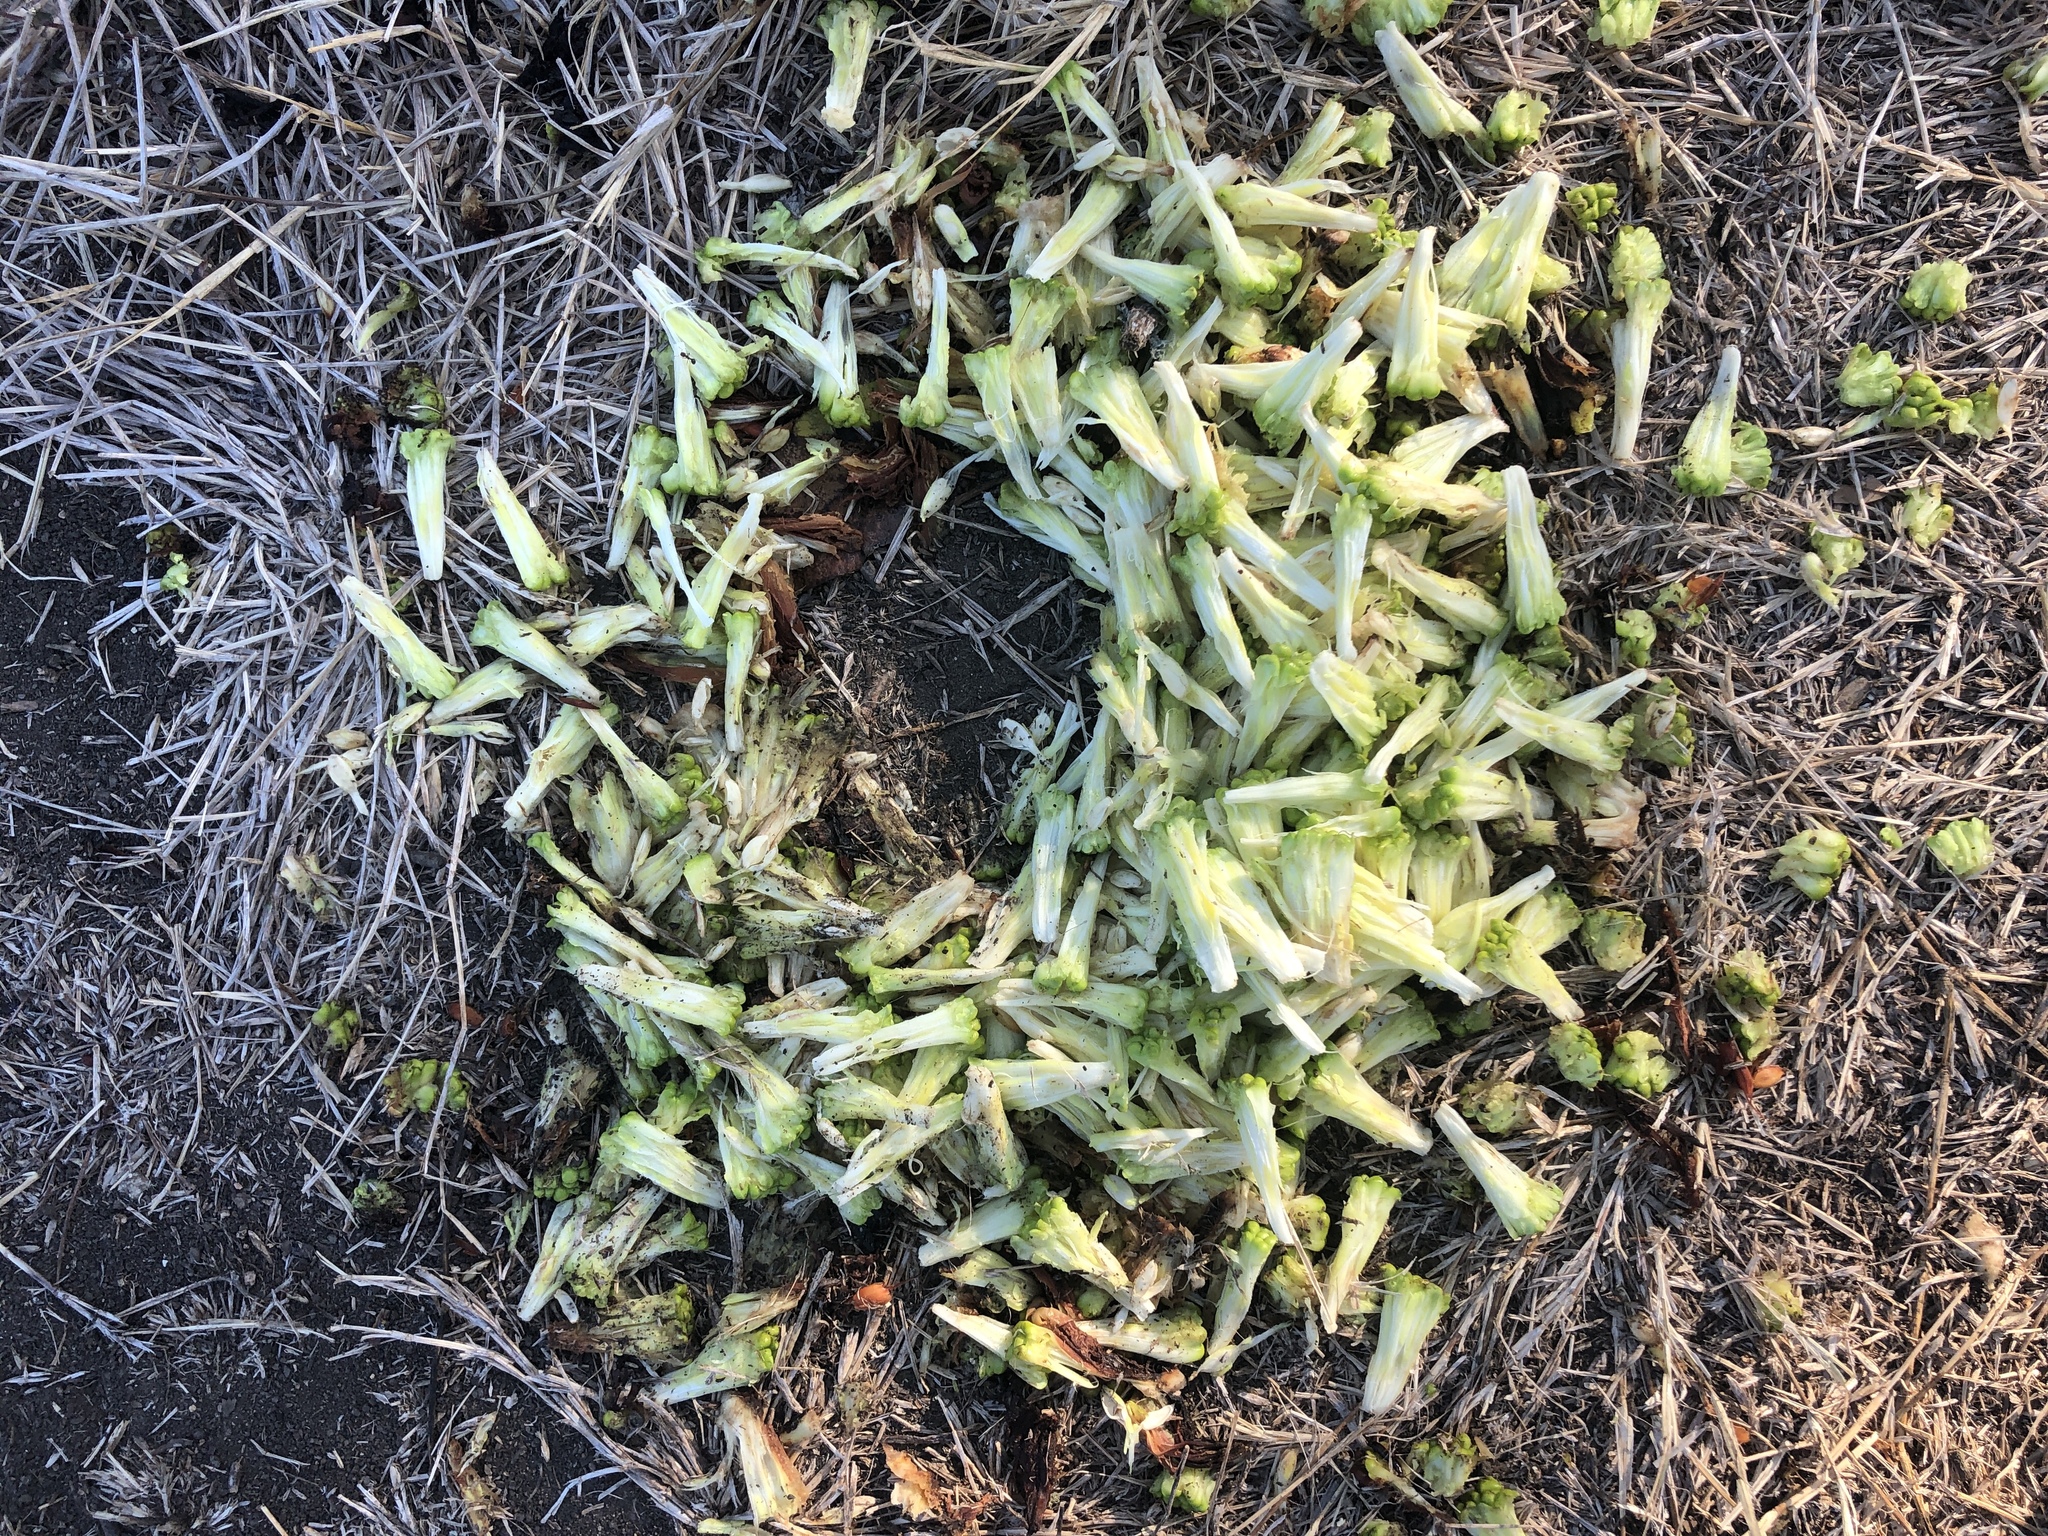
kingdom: Plantae
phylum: Tracheophyta
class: Magnoliopsida
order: Rosales
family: Moraceae
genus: Maclura
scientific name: Maclura pomifera
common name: Osage-orange
